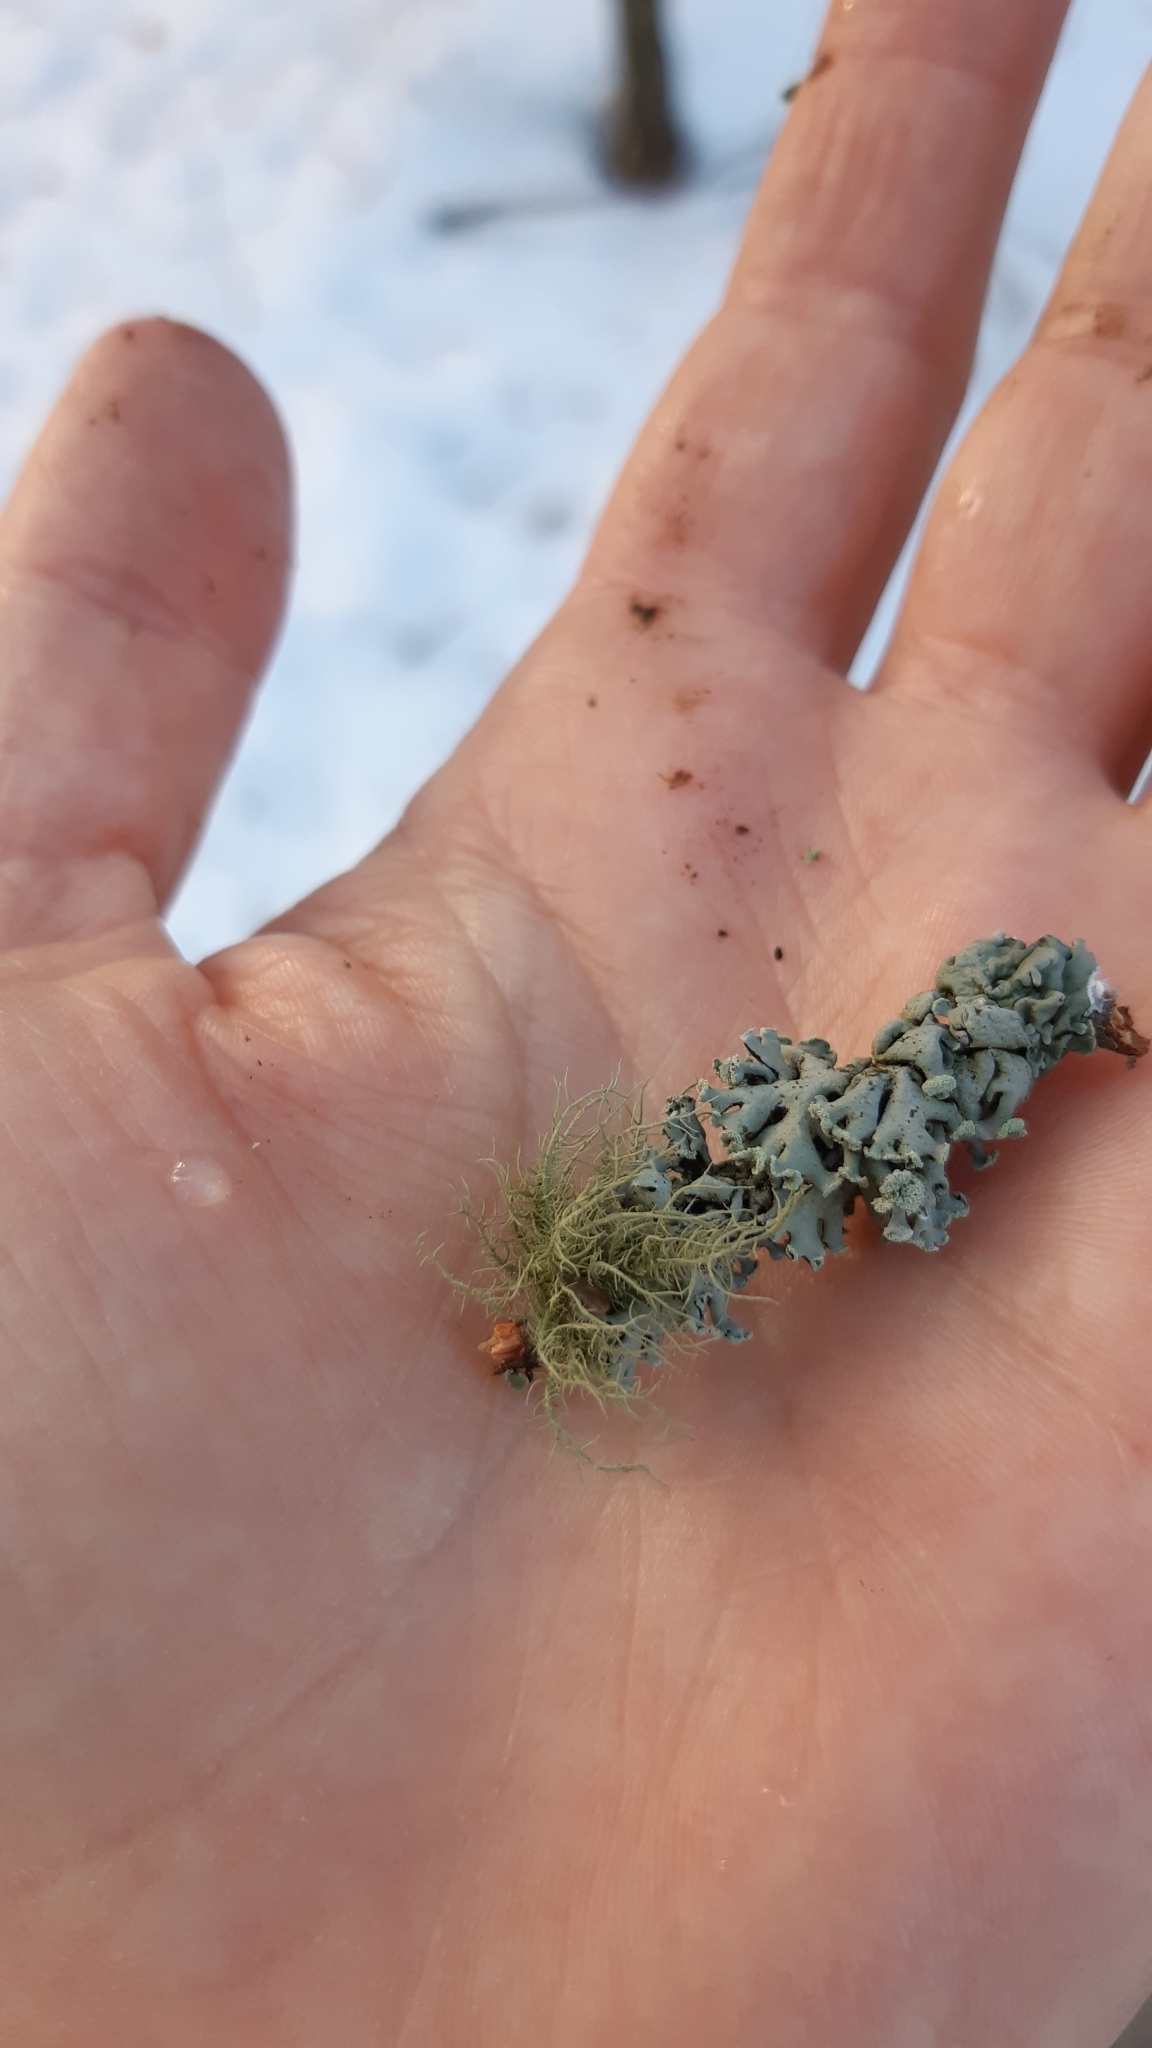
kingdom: Fungi
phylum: Ascomycota
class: Lecanoromycetes
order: Lecanorales
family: Parmeliaceae
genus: Usnea
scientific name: Usnea hirta
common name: Bristly beard lichen
